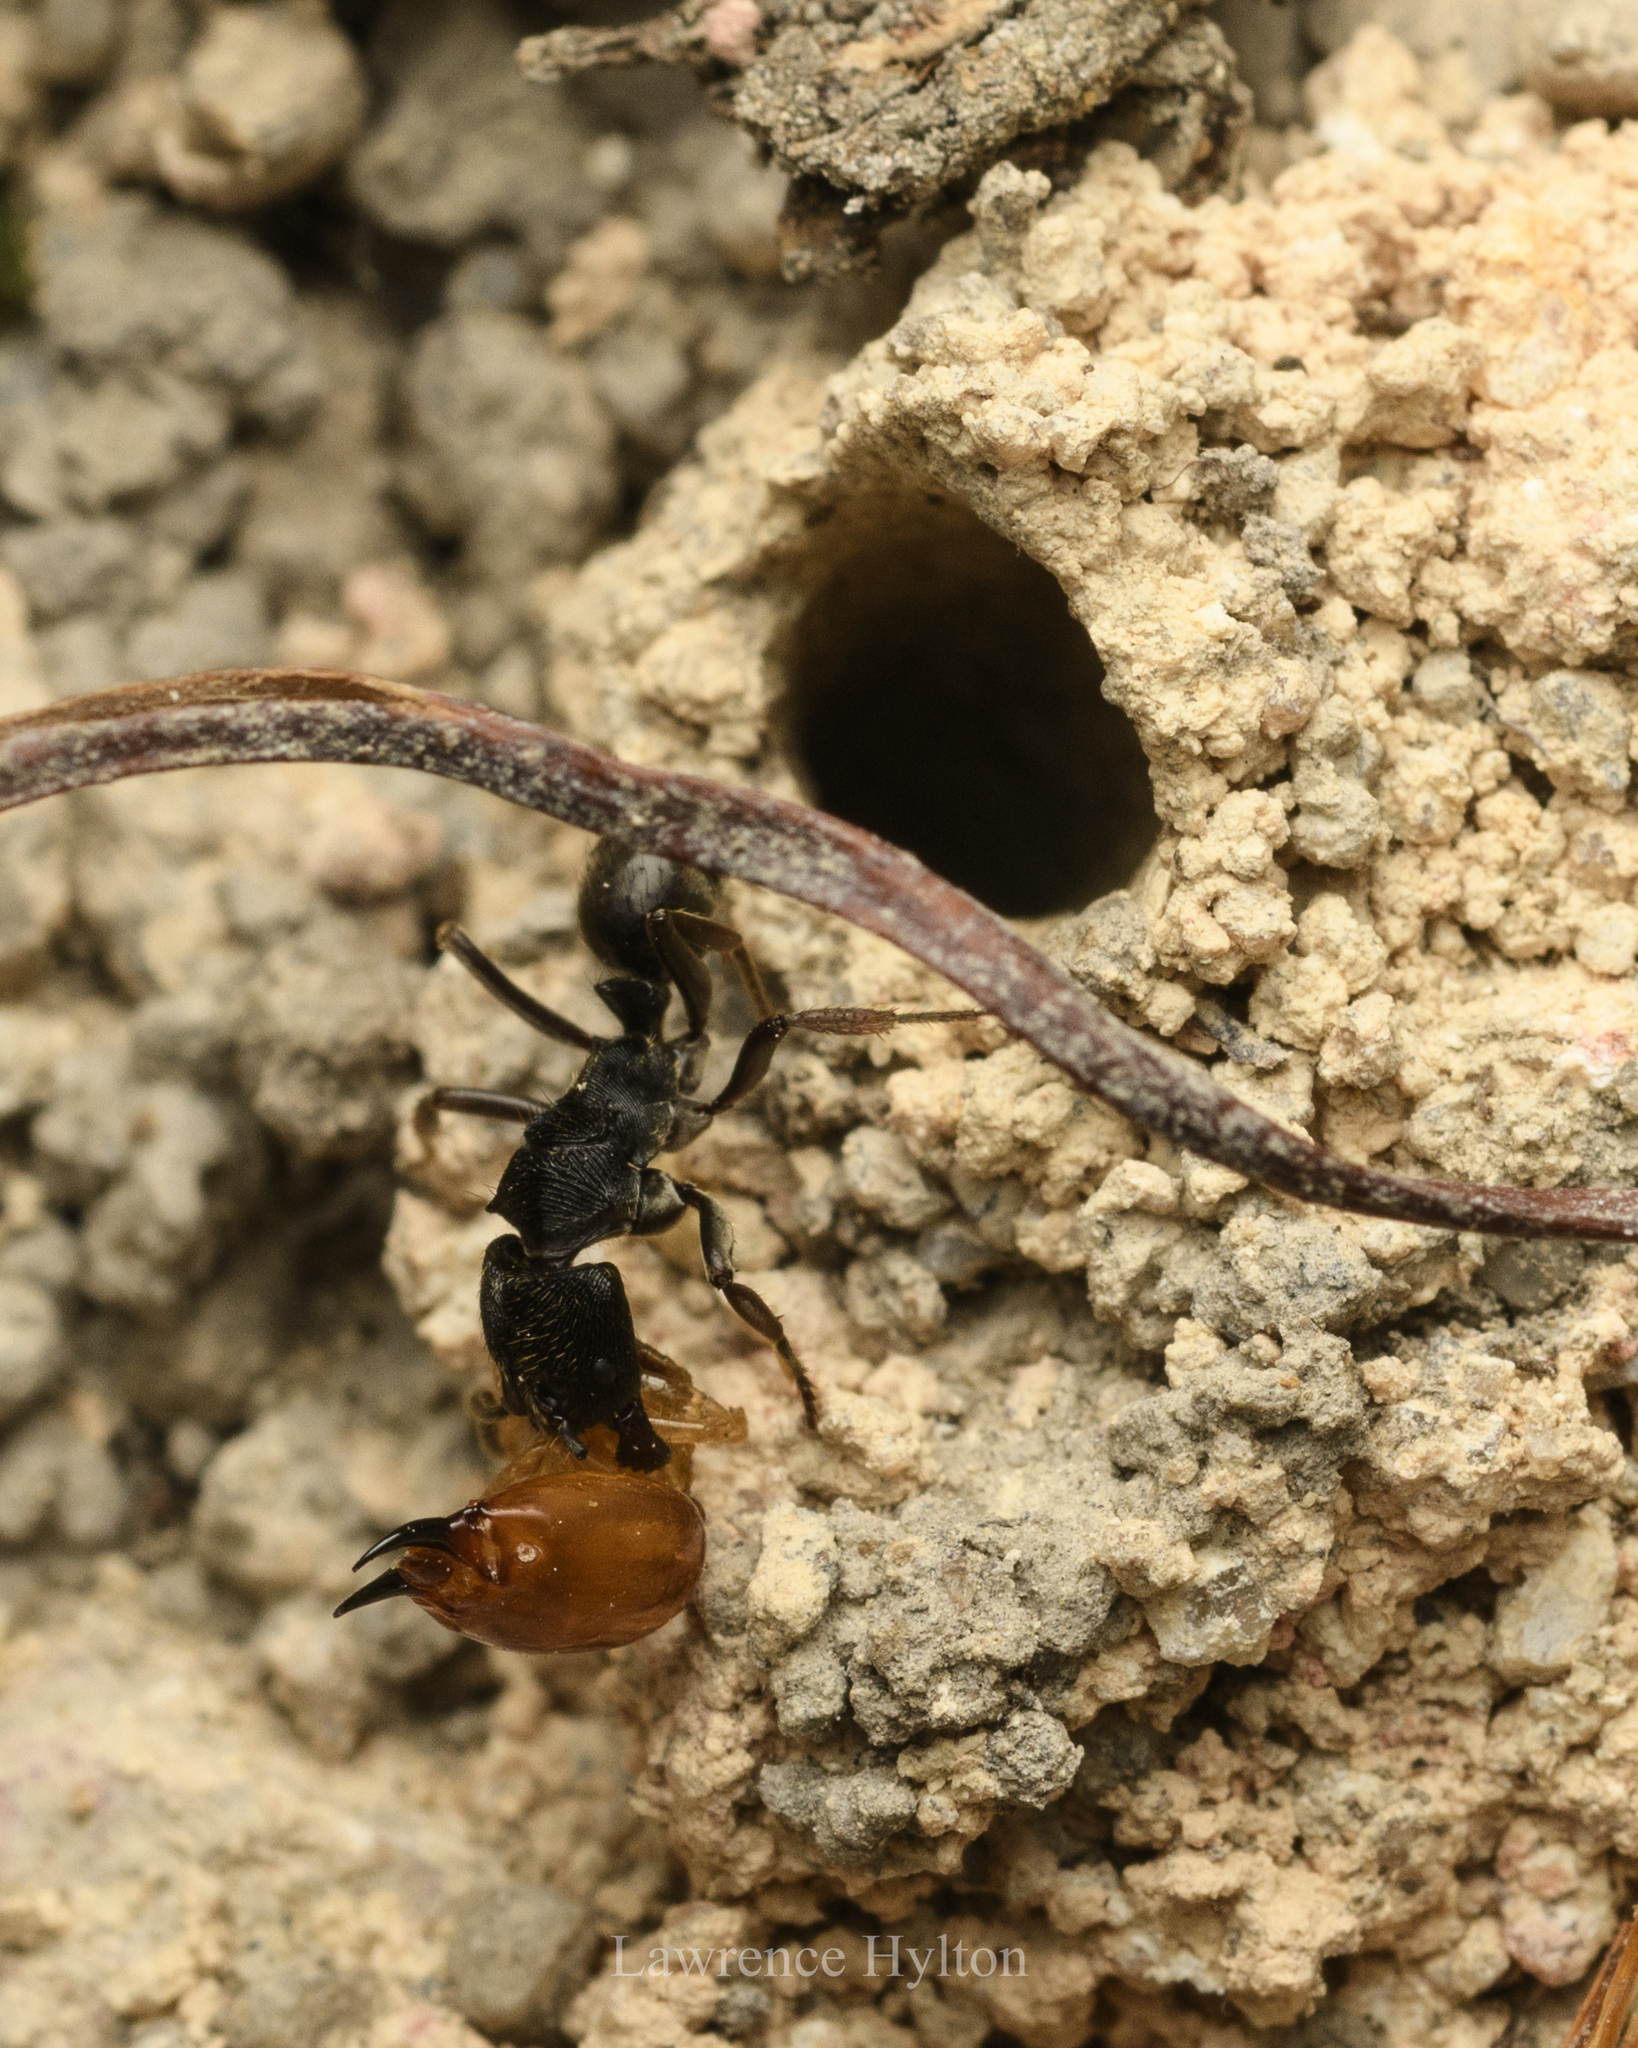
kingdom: Animalia
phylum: Arthropoda
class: Insecta
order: Hymenoptera
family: Formicidae
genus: Odontoponera
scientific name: Odontoponera denticulata
